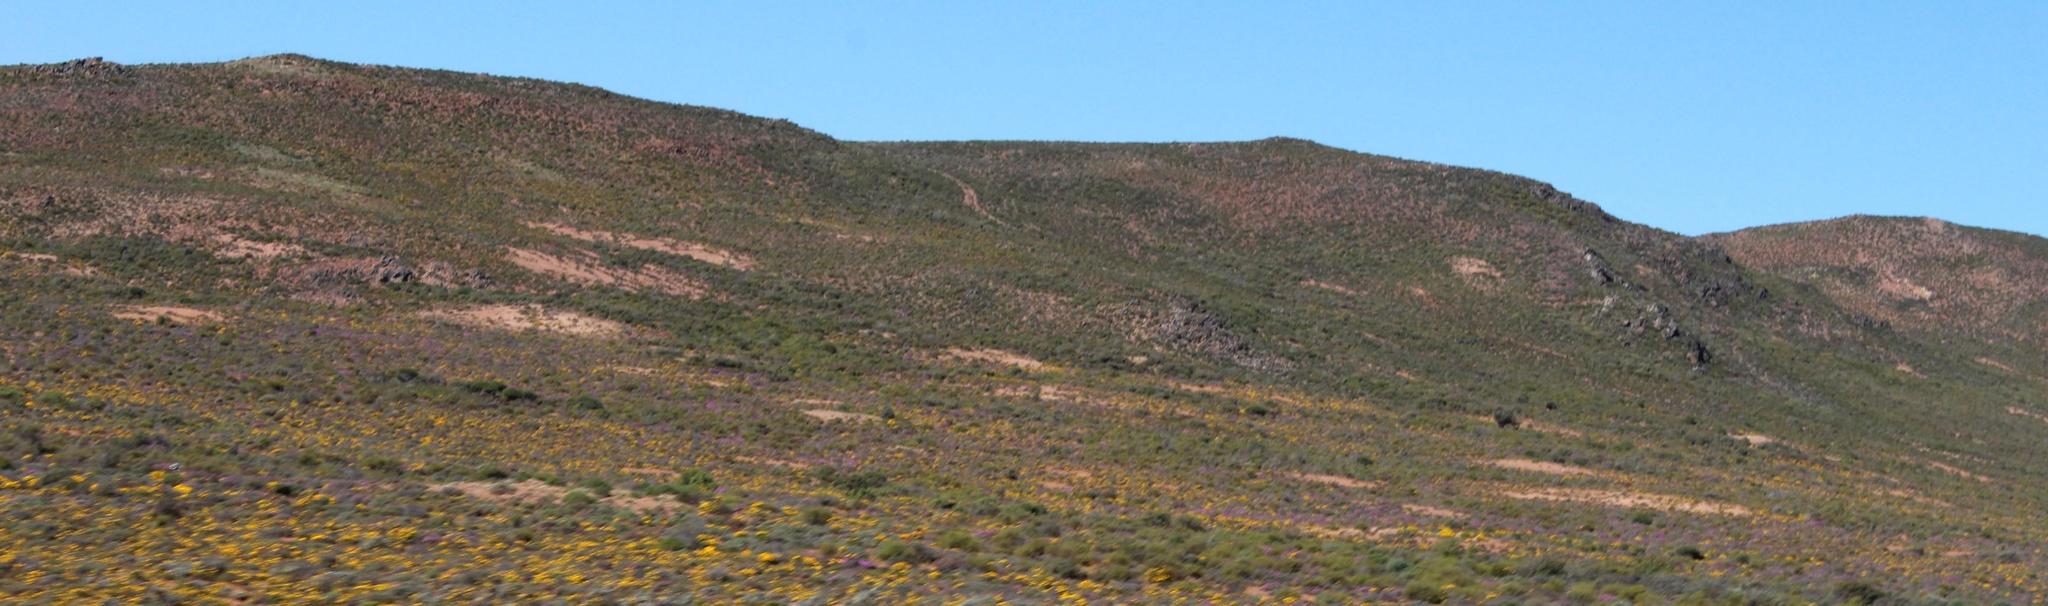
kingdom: Animalia
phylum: Arthropoda
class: Insecta
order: Blattodea
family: Hodotermitidae
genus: Microhodotermes
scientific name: Microhodotermes viator
